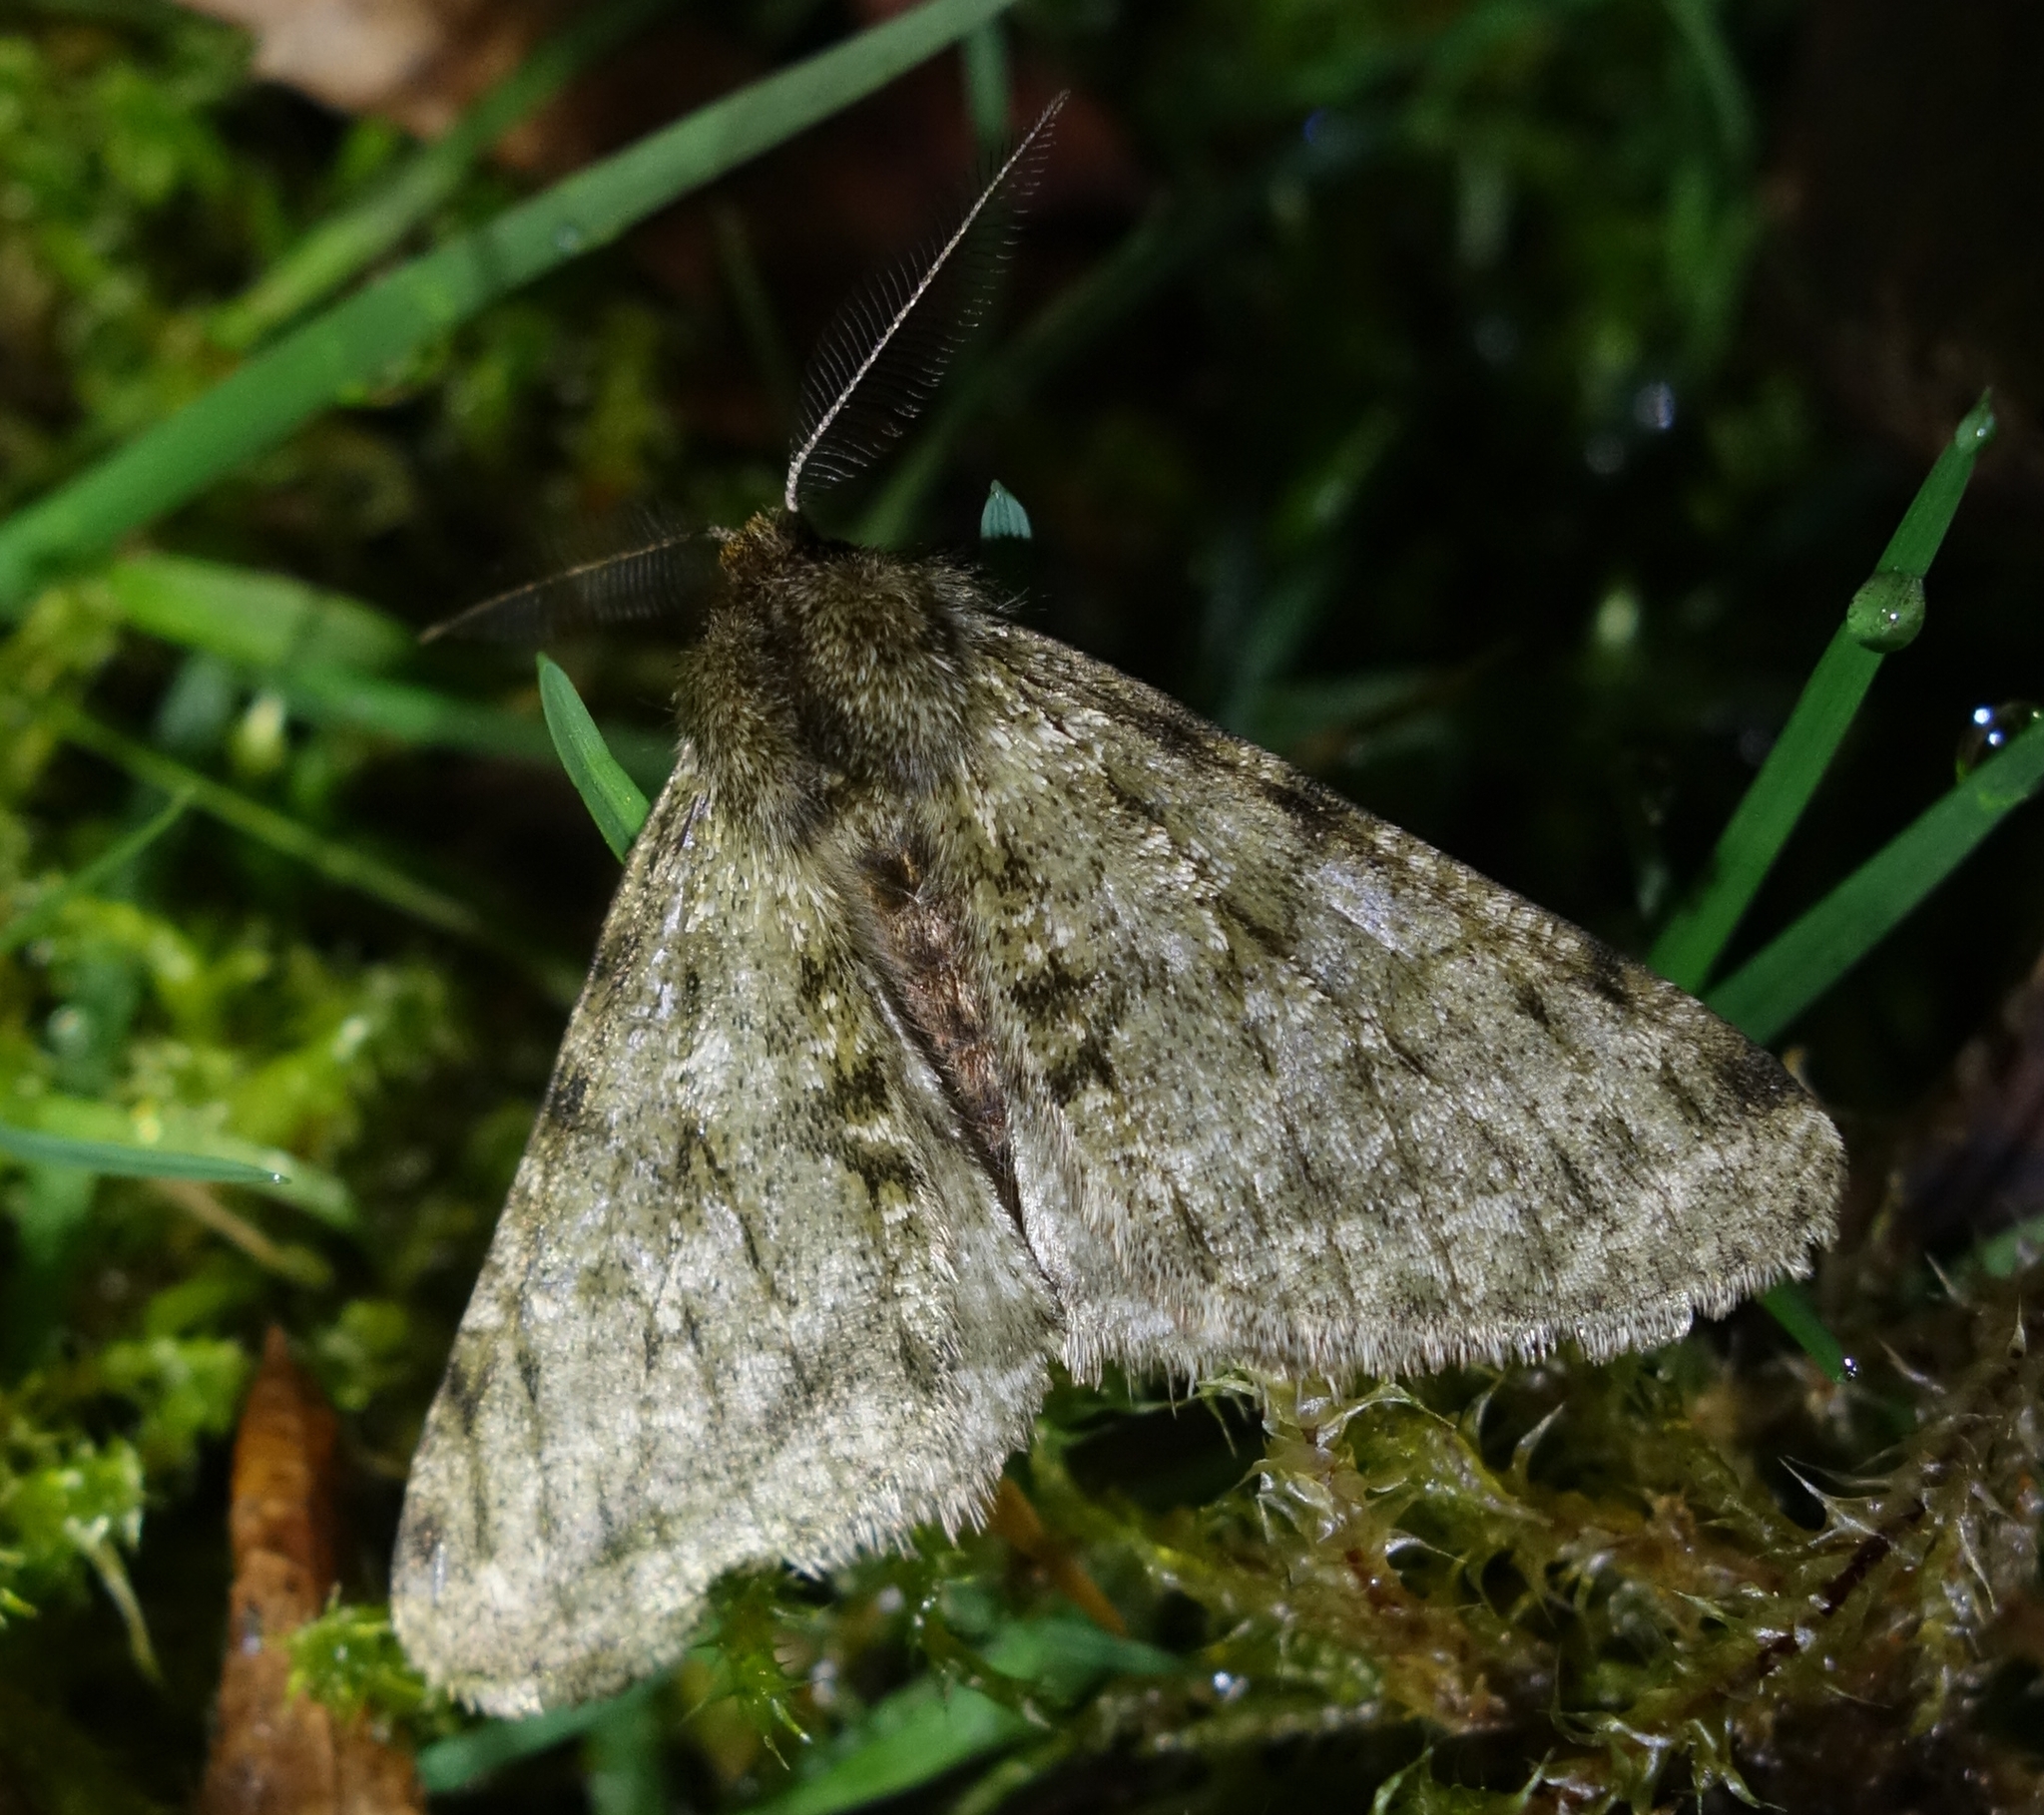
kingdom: Animalia
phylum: Arthropoda
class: Insecta
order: Lepidoptera
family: Geometridae
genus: Phigalia
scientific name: Phigalia pilosaria
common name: Pale brindled beauty
